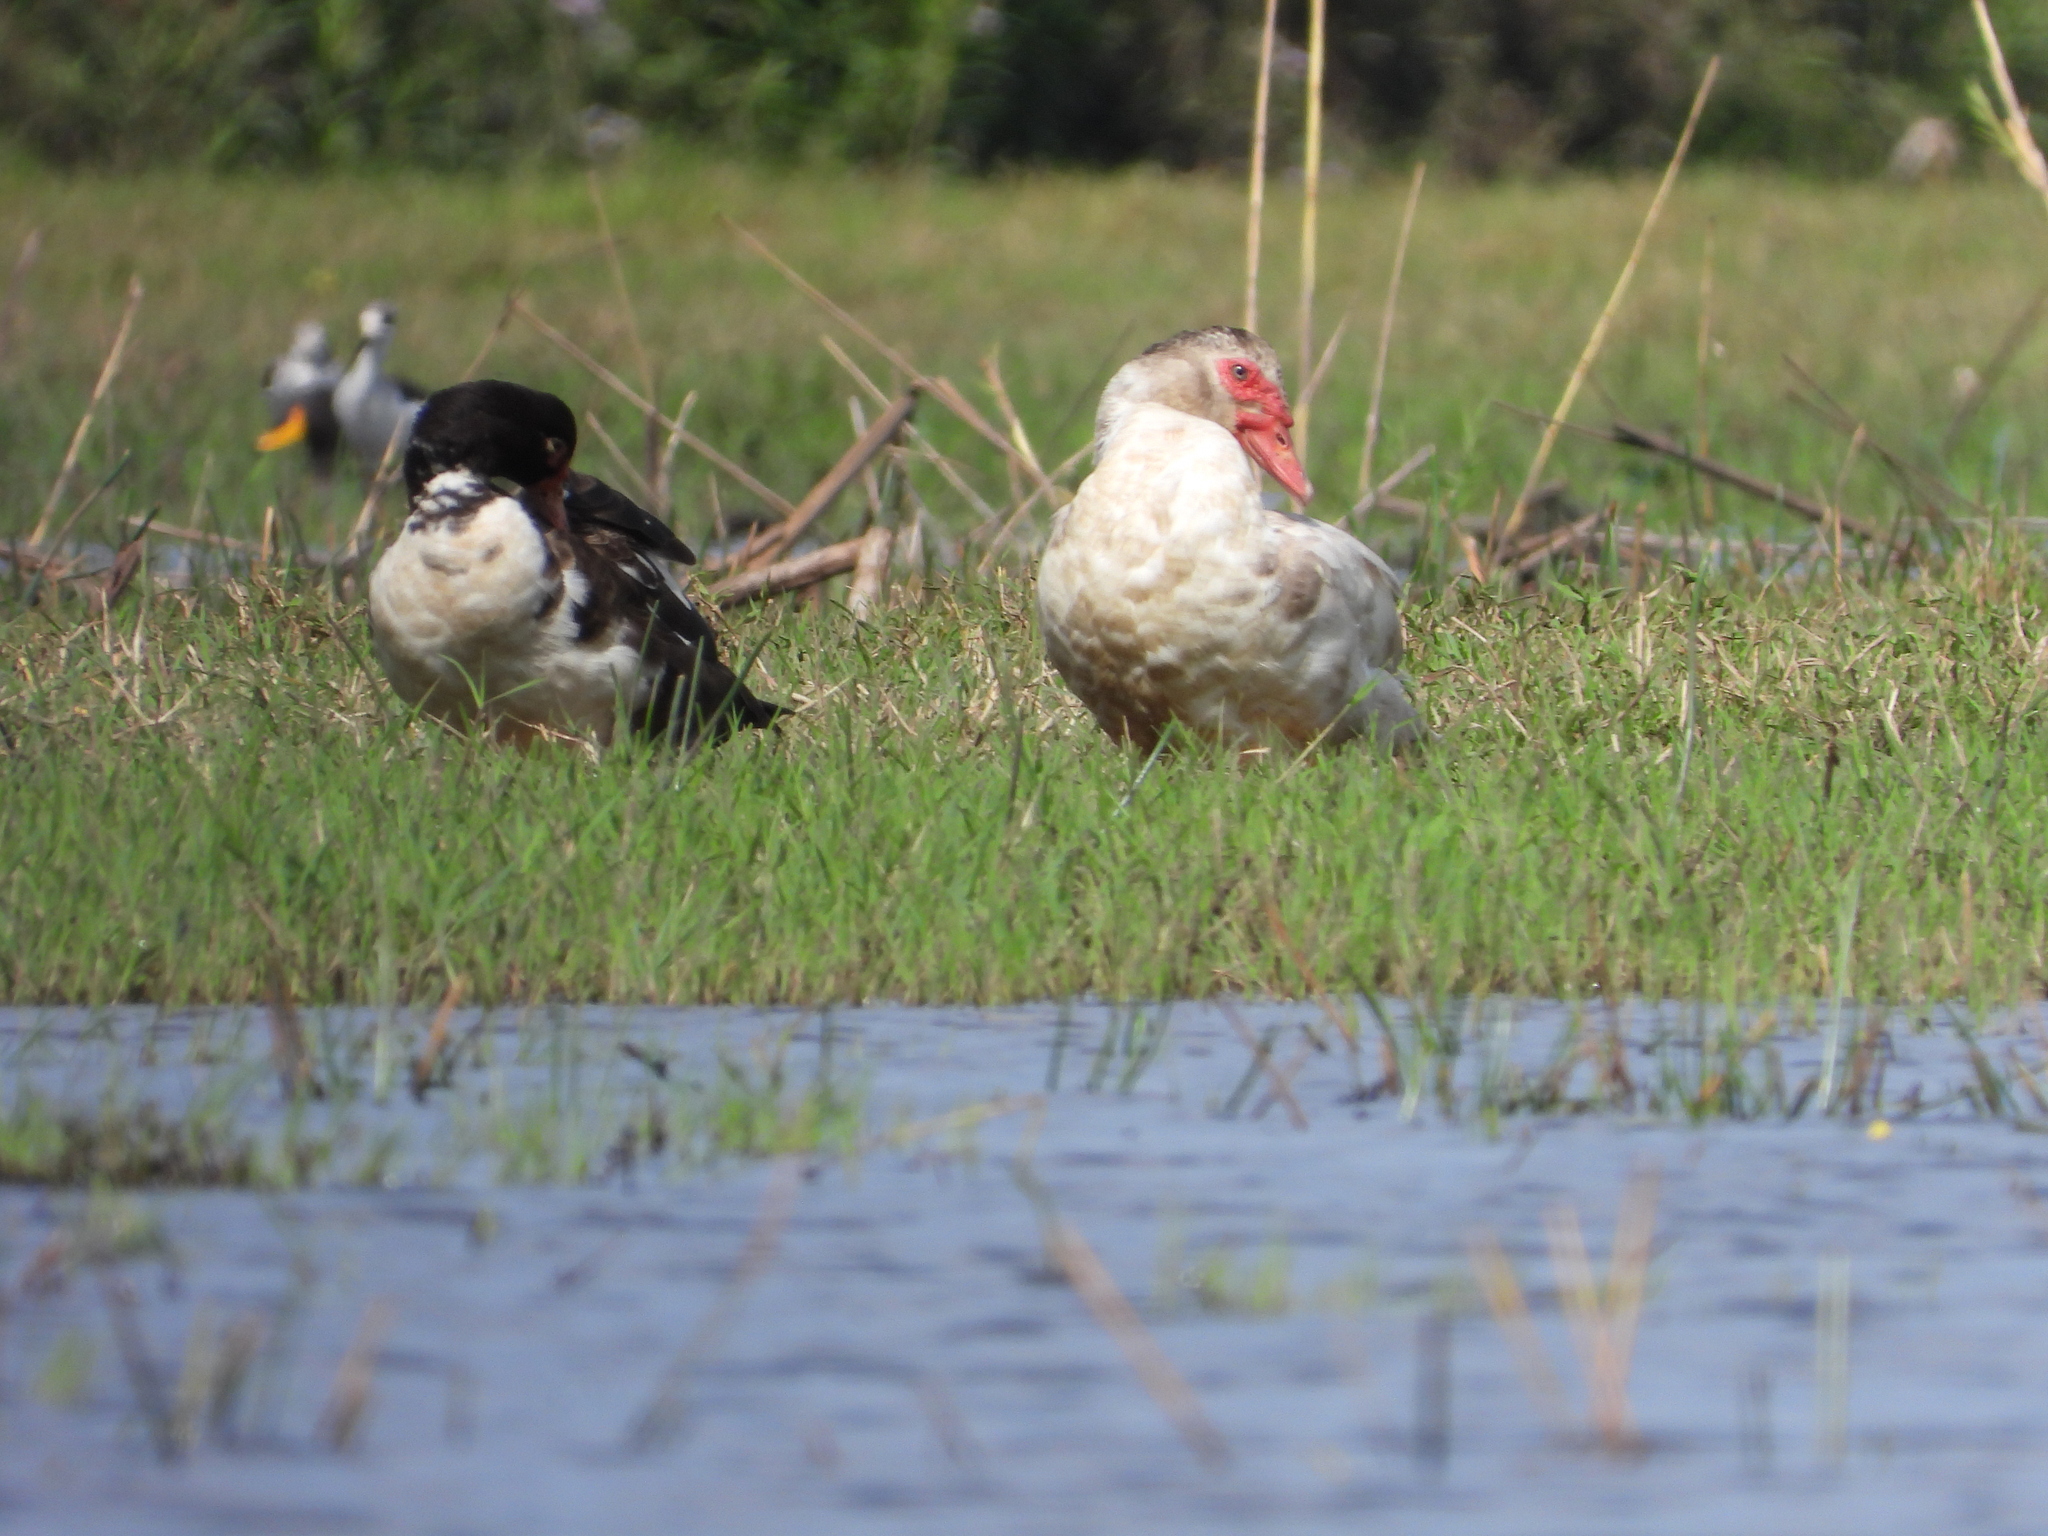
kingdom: Animalia
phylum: Chordata
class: Aves
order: Anseriformes
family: Anatidae
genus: Cairina
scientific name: Cairina moschata
